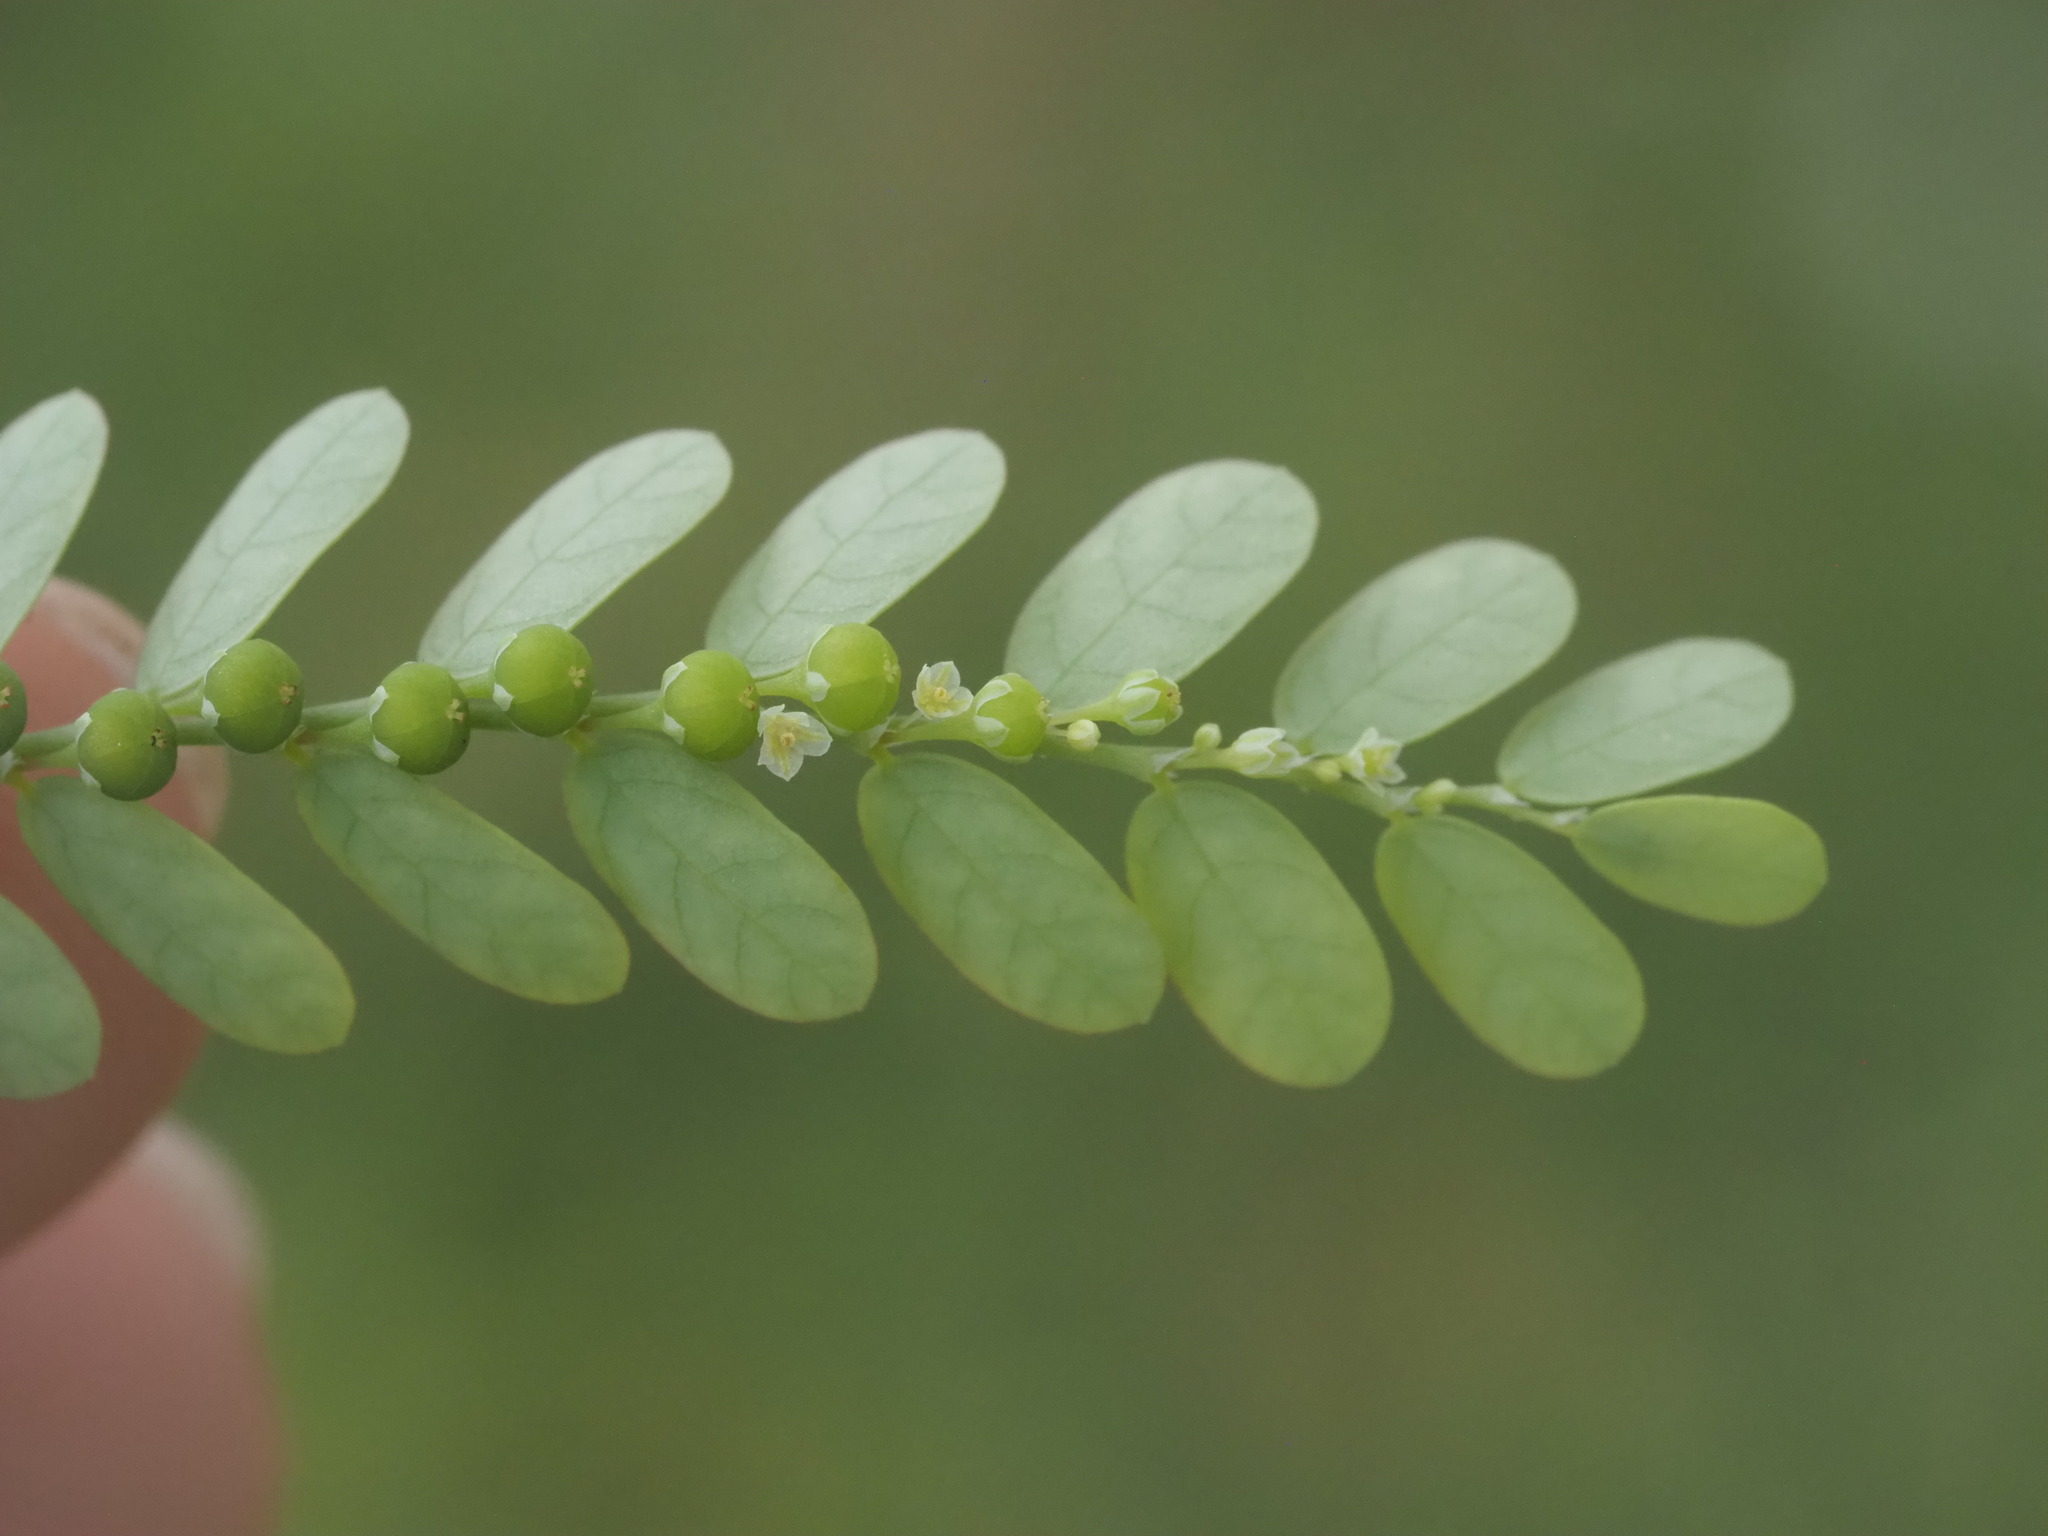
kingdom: Plantae
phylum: Tracheophyta
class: Magnoliopsida
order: Malpighiales
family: Phyllanthaceae
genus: Phyllanthus
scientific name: Phyllanthus amarus
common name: Carry me seed
